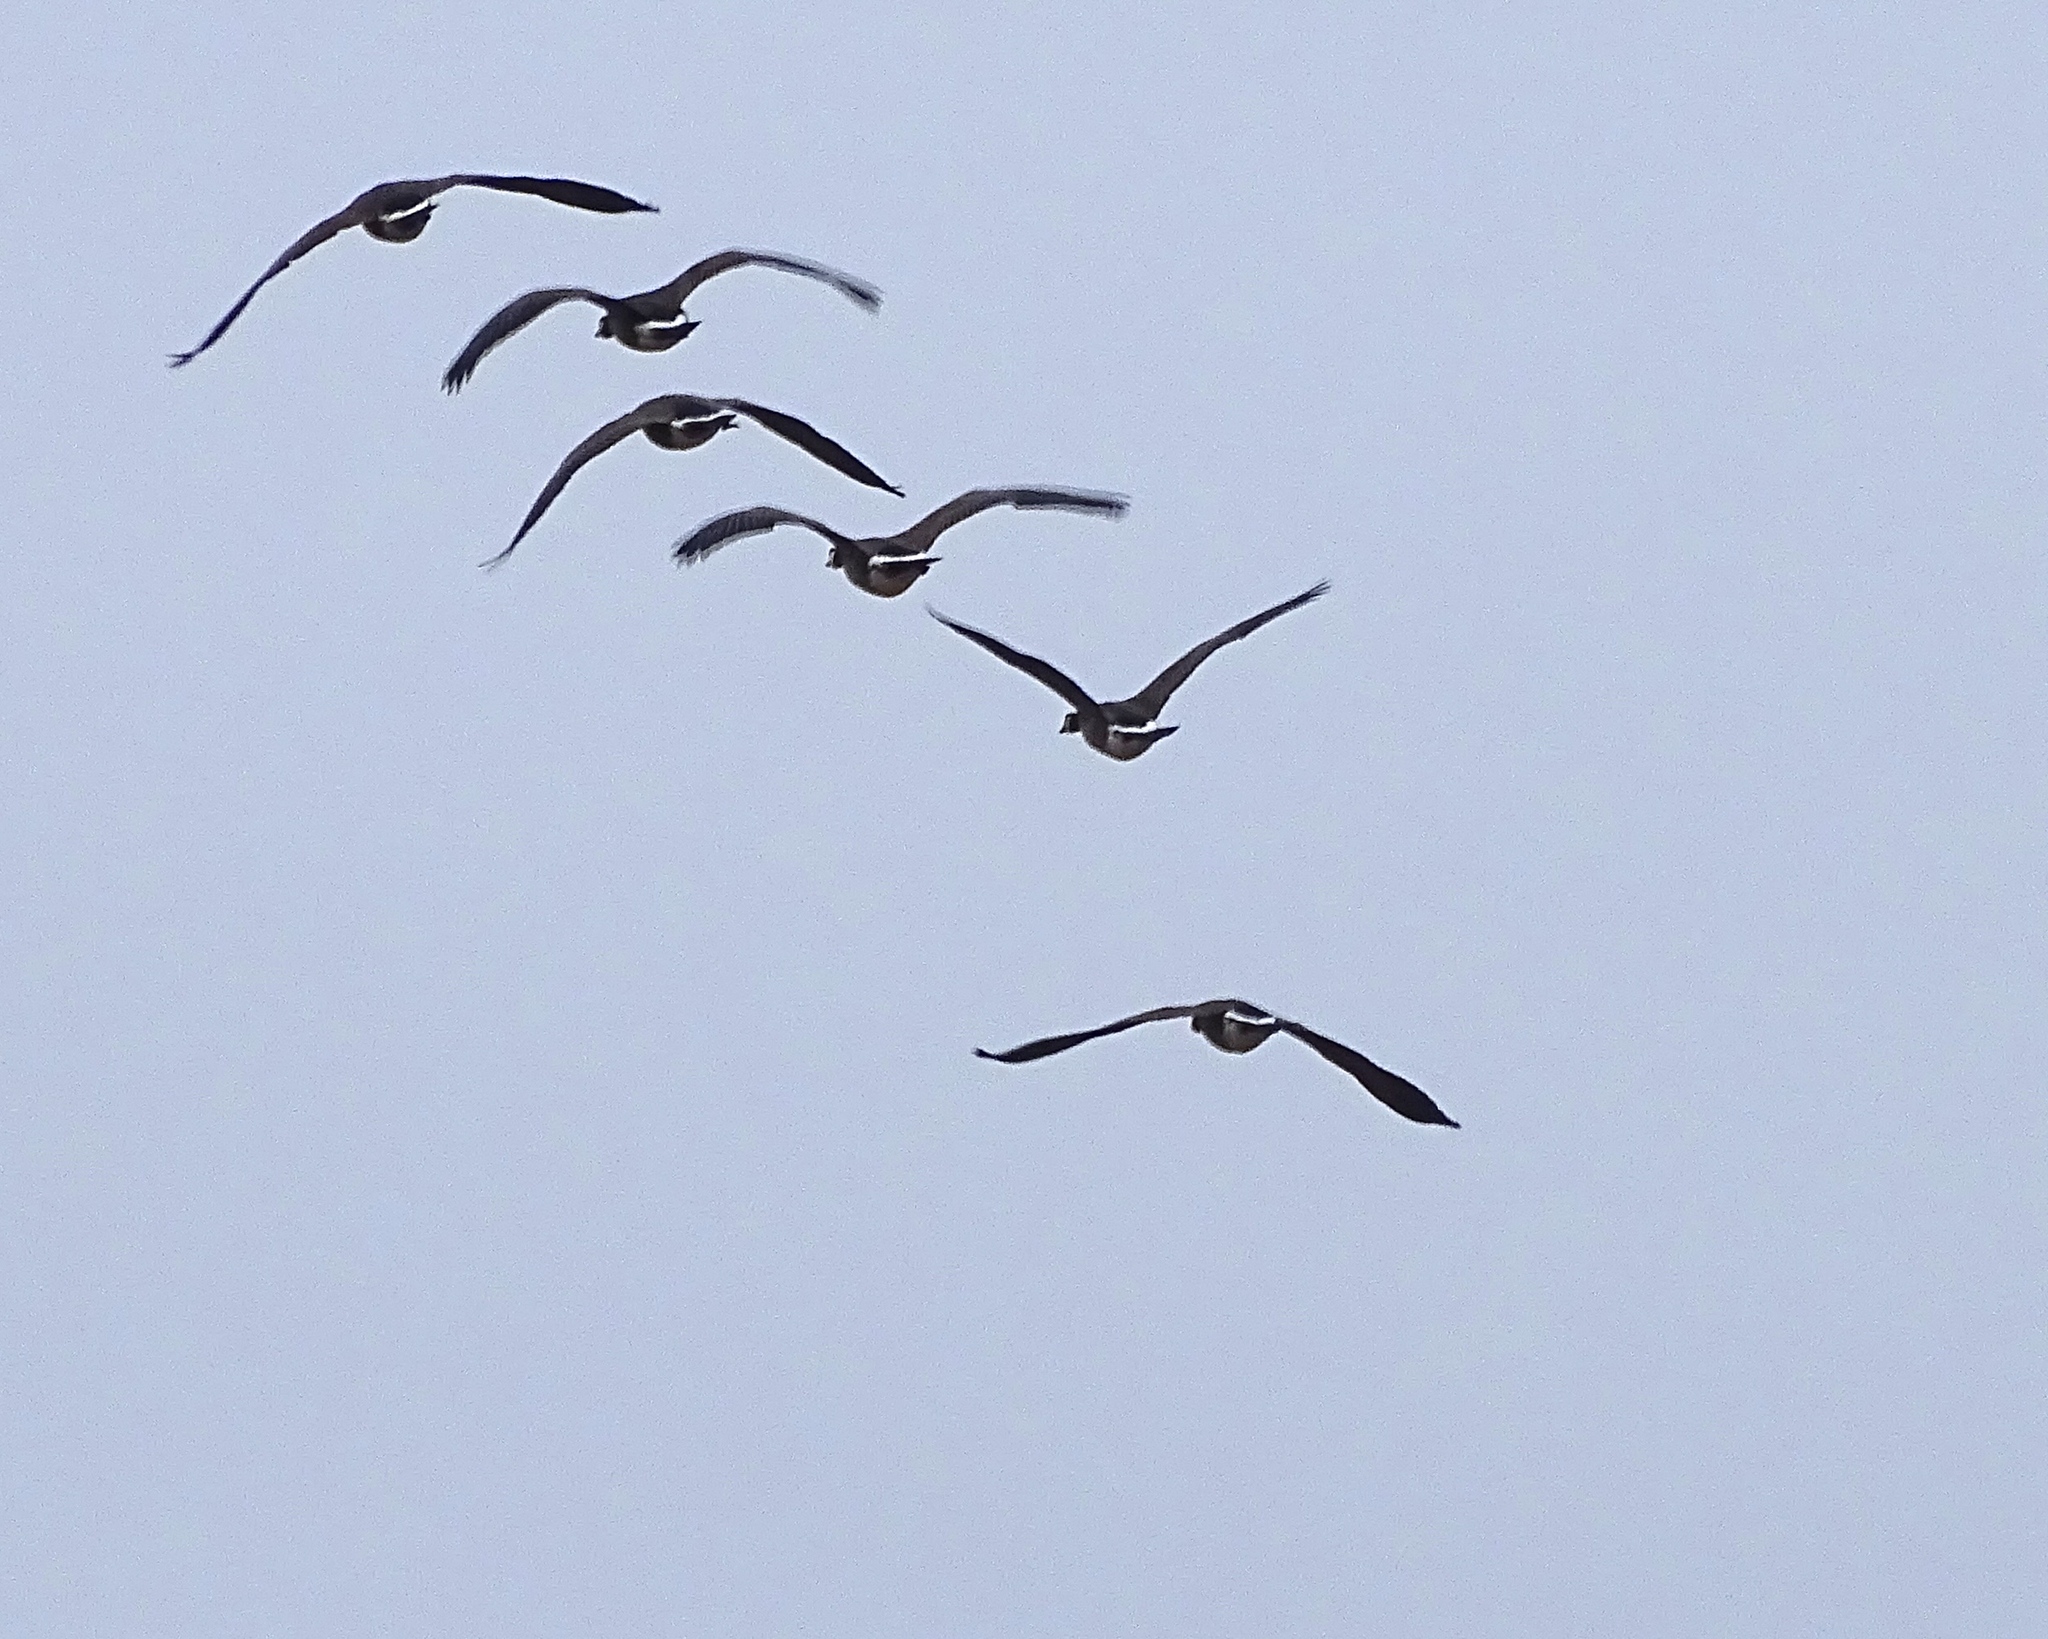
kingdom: Animalia
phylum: Chordata
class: Aves
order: Anseriformes
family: Anatidae
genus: Branta
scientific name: Branta canadensis
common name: Canada goose
